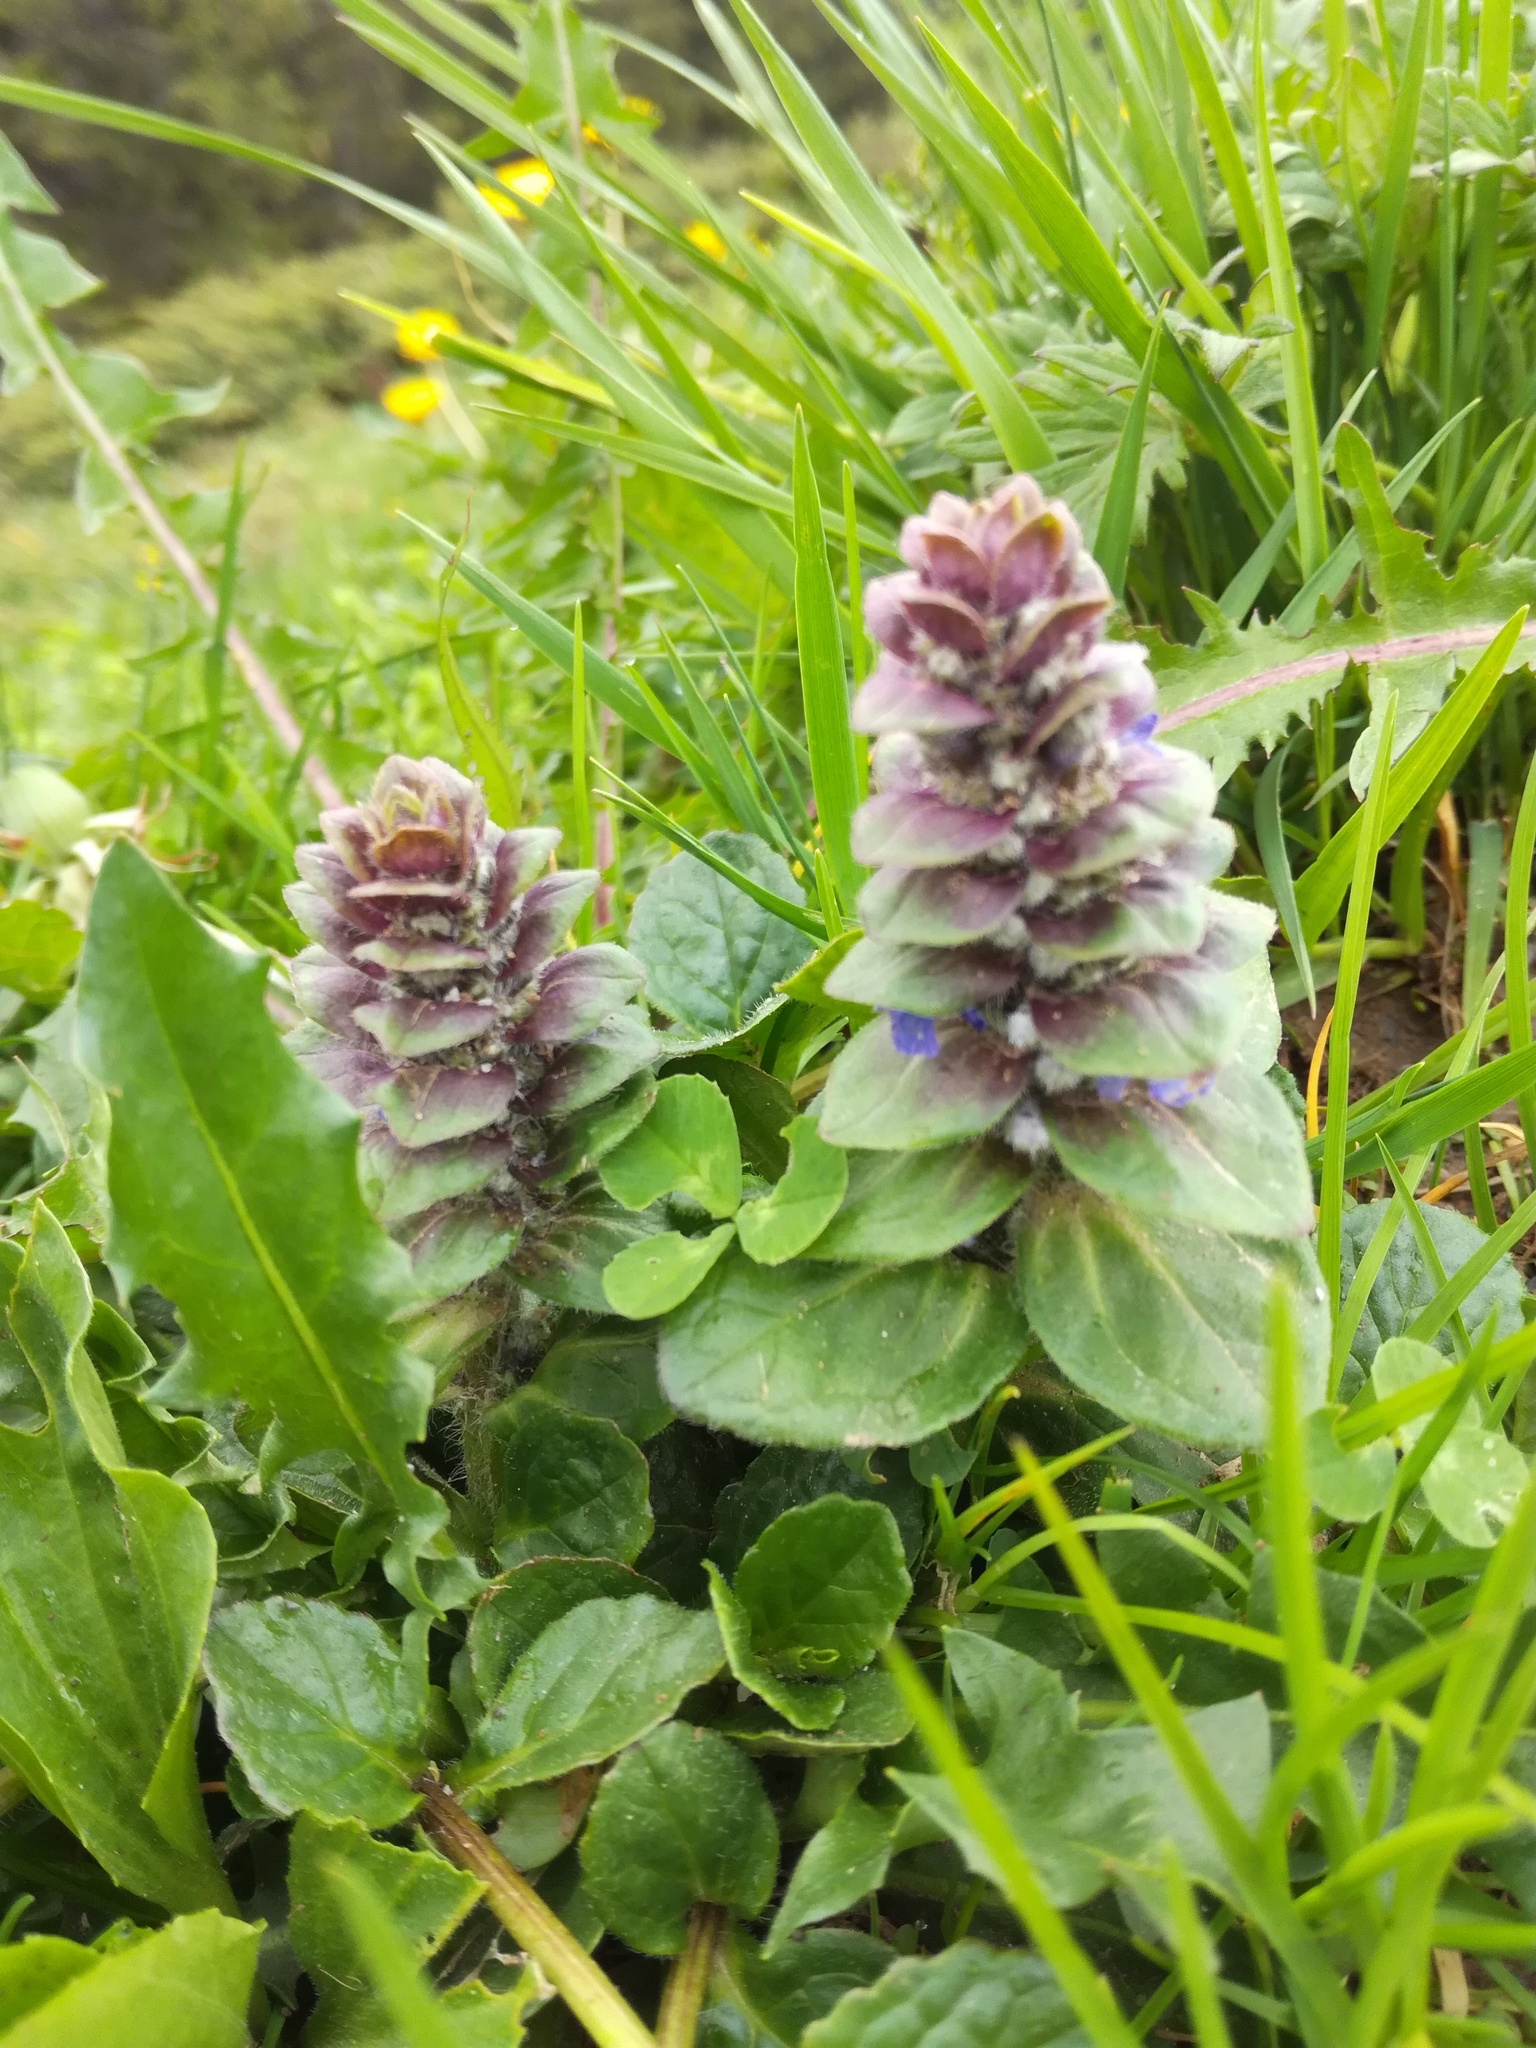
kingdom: Plantae
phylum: Tracheophyta
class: Magnoliopsida
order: Lamiales
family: Lamiaceae
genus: Ajuga
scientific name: Ajuga pyramidalis
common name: Pyramid bugle
